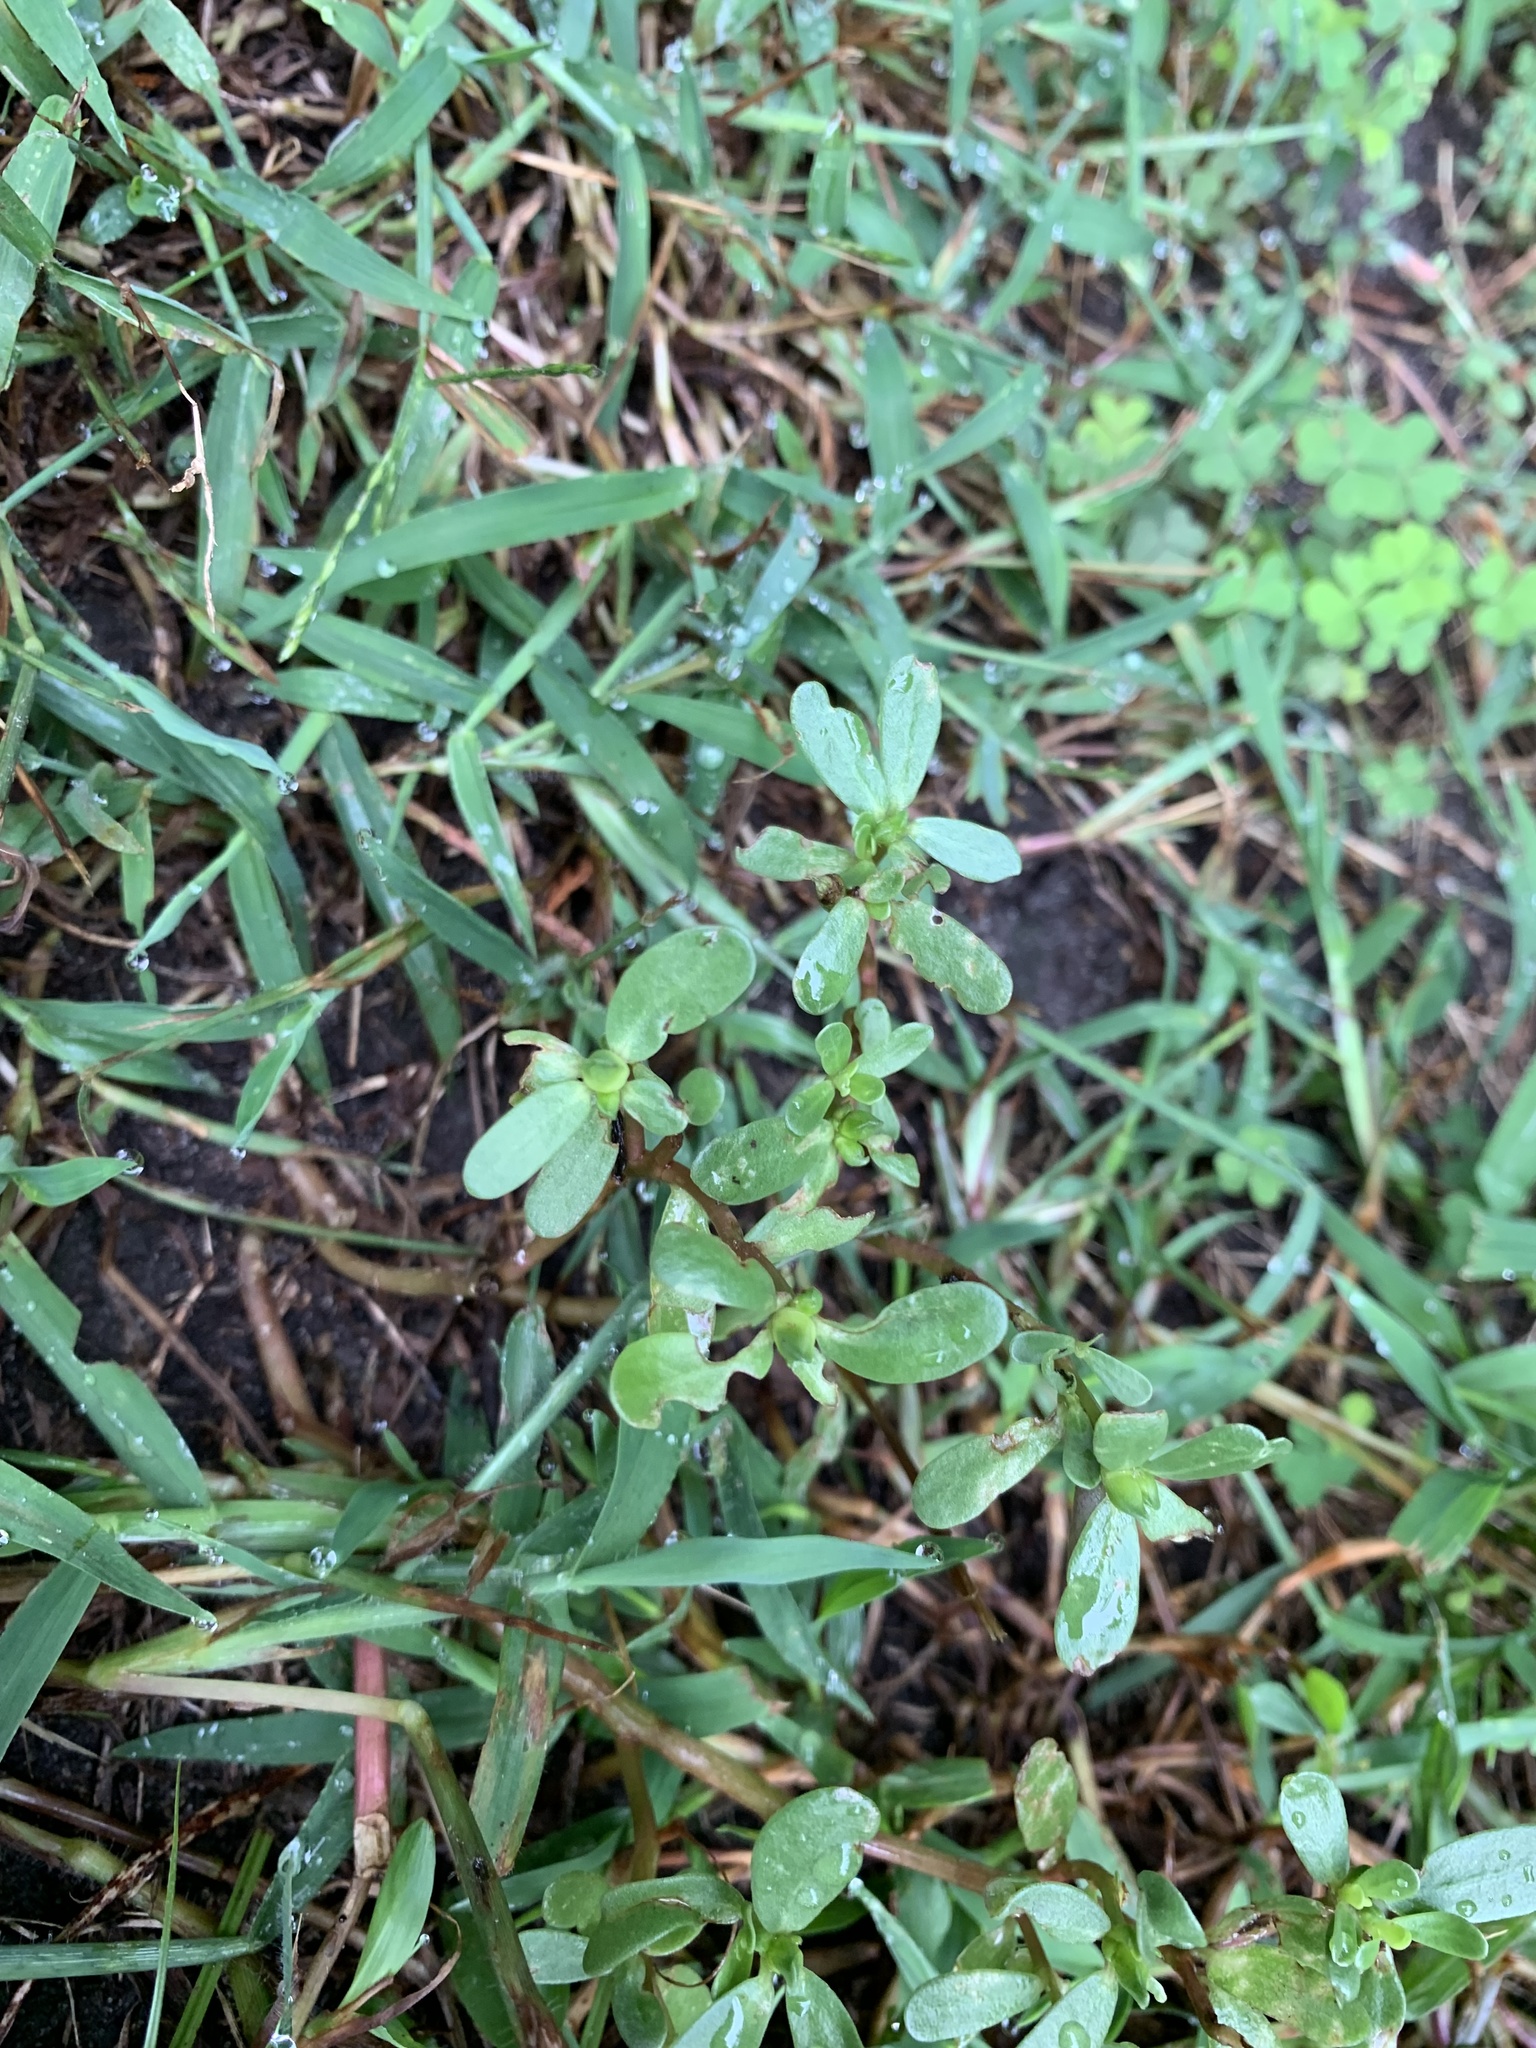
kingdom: Plantae
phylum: Tracheophyta
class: Magnoliopsida
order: Caryophyllales
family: Portulacaceae
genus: Portulaca
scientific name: Portulaca oleracea
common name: Common purslane
